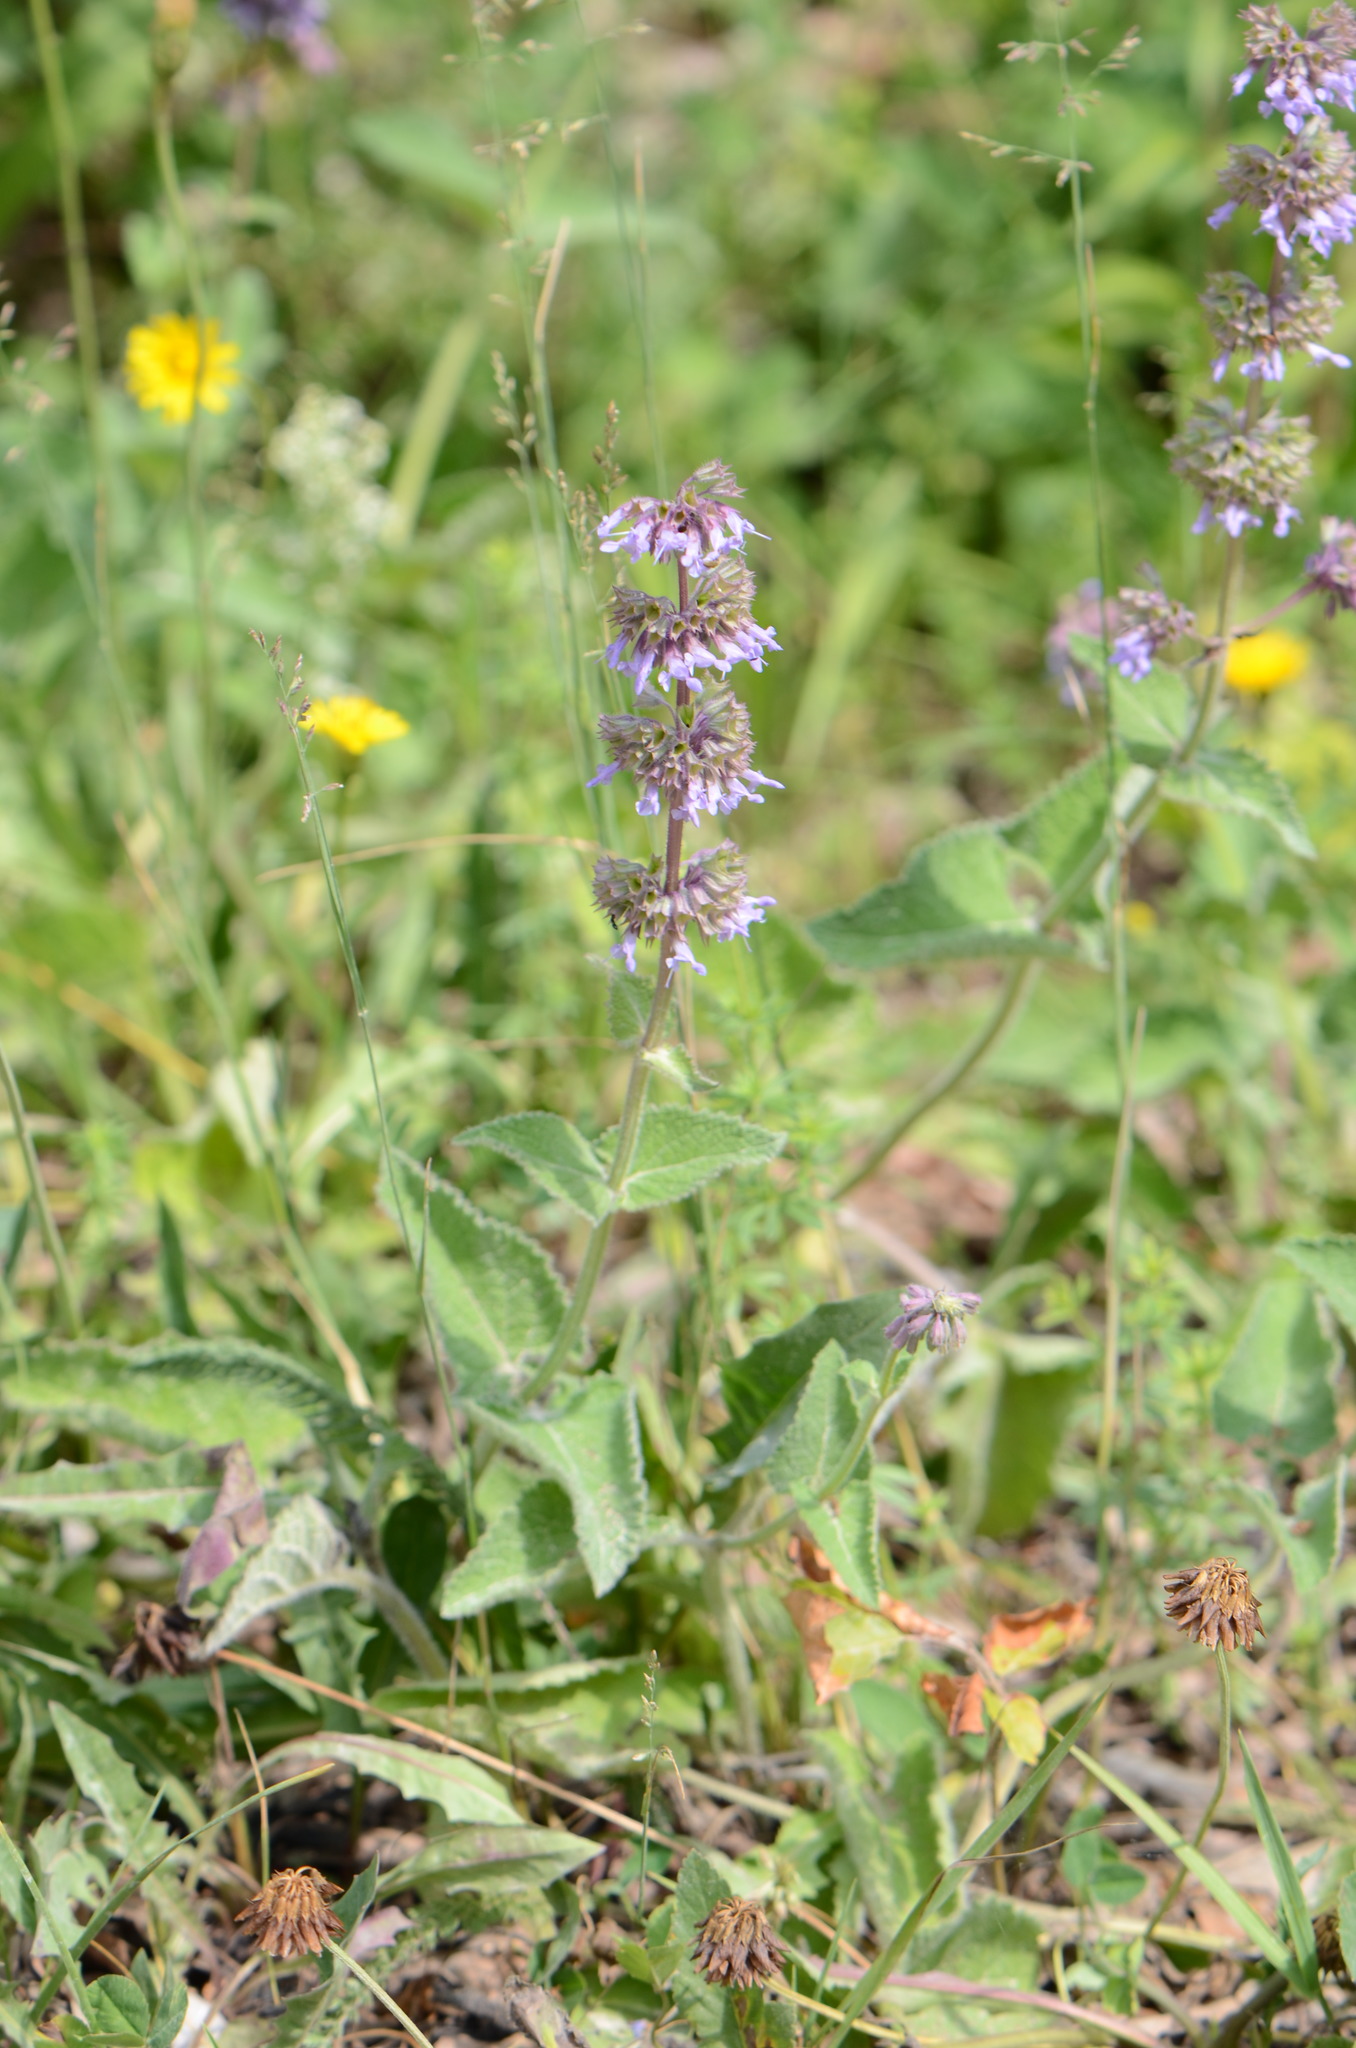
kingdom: Plantae
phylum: Tracheophyta
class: Magnoliopsida
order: Lamiales
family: Lamiaceae
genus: Salvia
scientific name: Salvia verticillata
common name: Whorled clary
